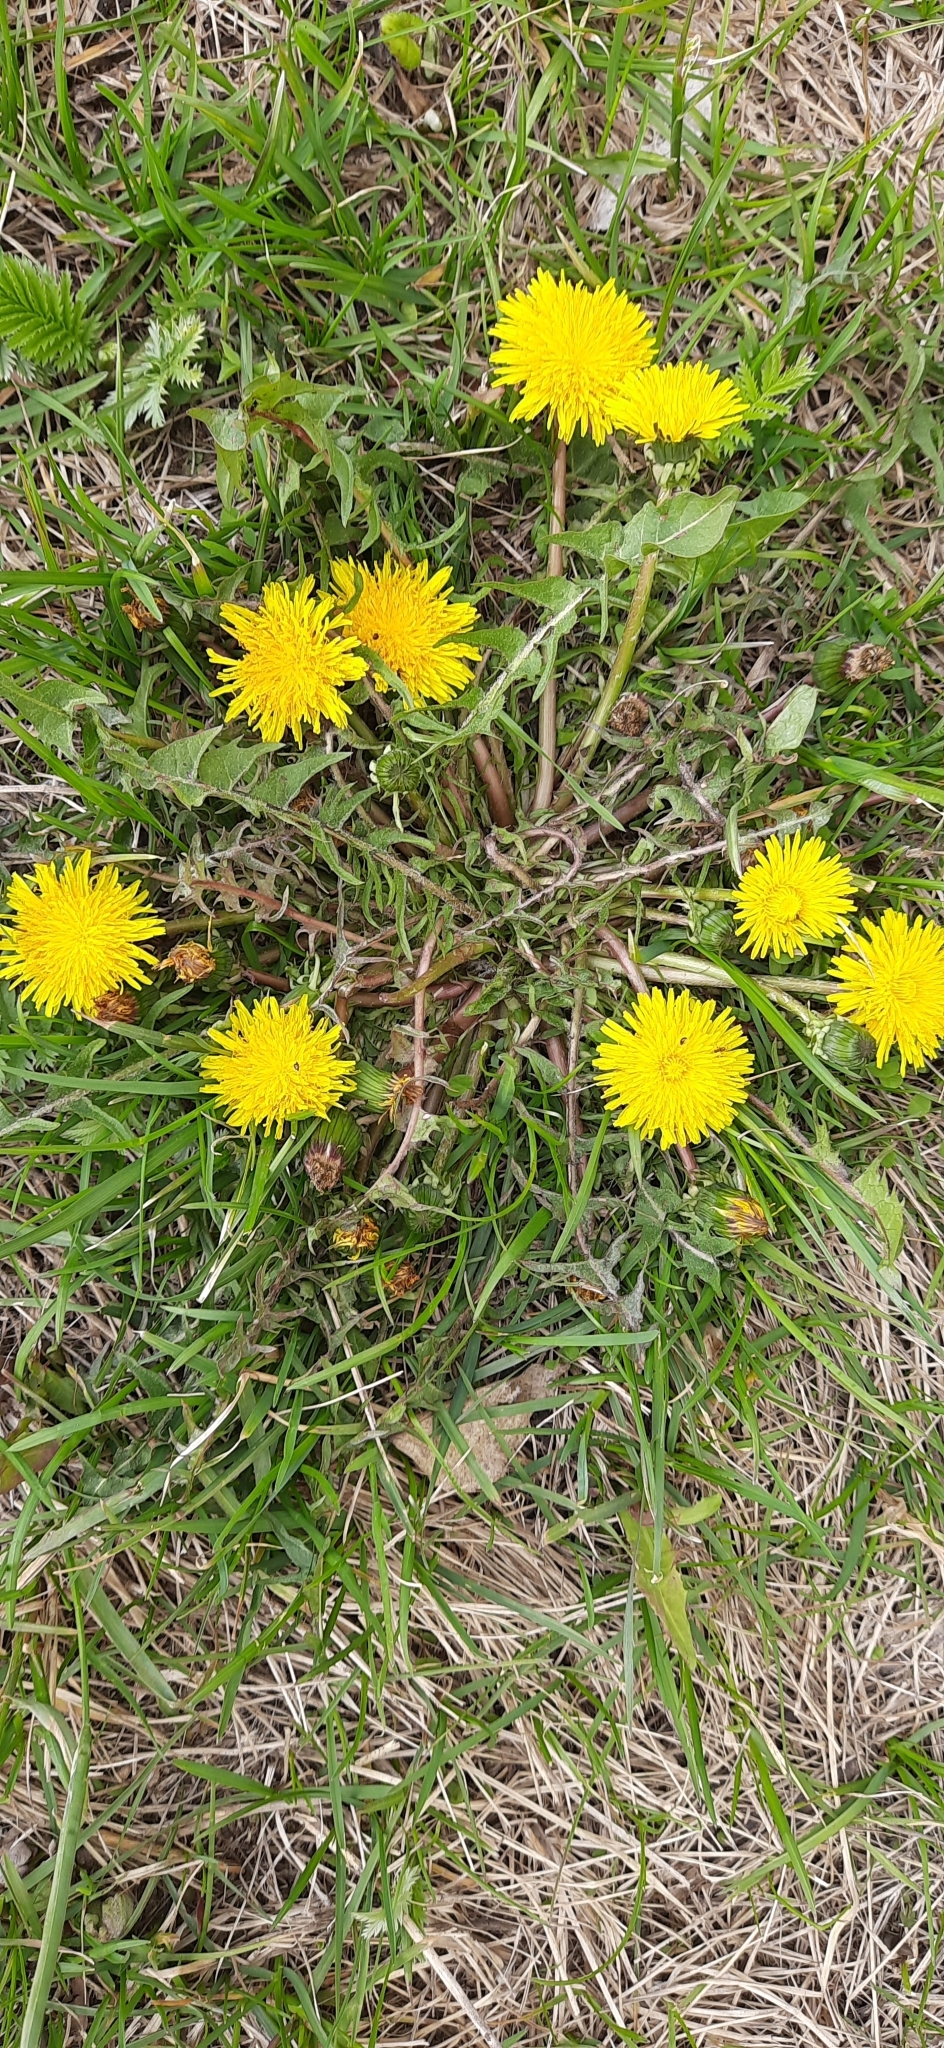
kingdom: Plantae
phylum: Tracheophyta
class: Magnoliopsida
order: Asterales
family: Asteraceae
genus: Taraxacum
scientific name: Taraxacum officinale
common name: Common dandelion
